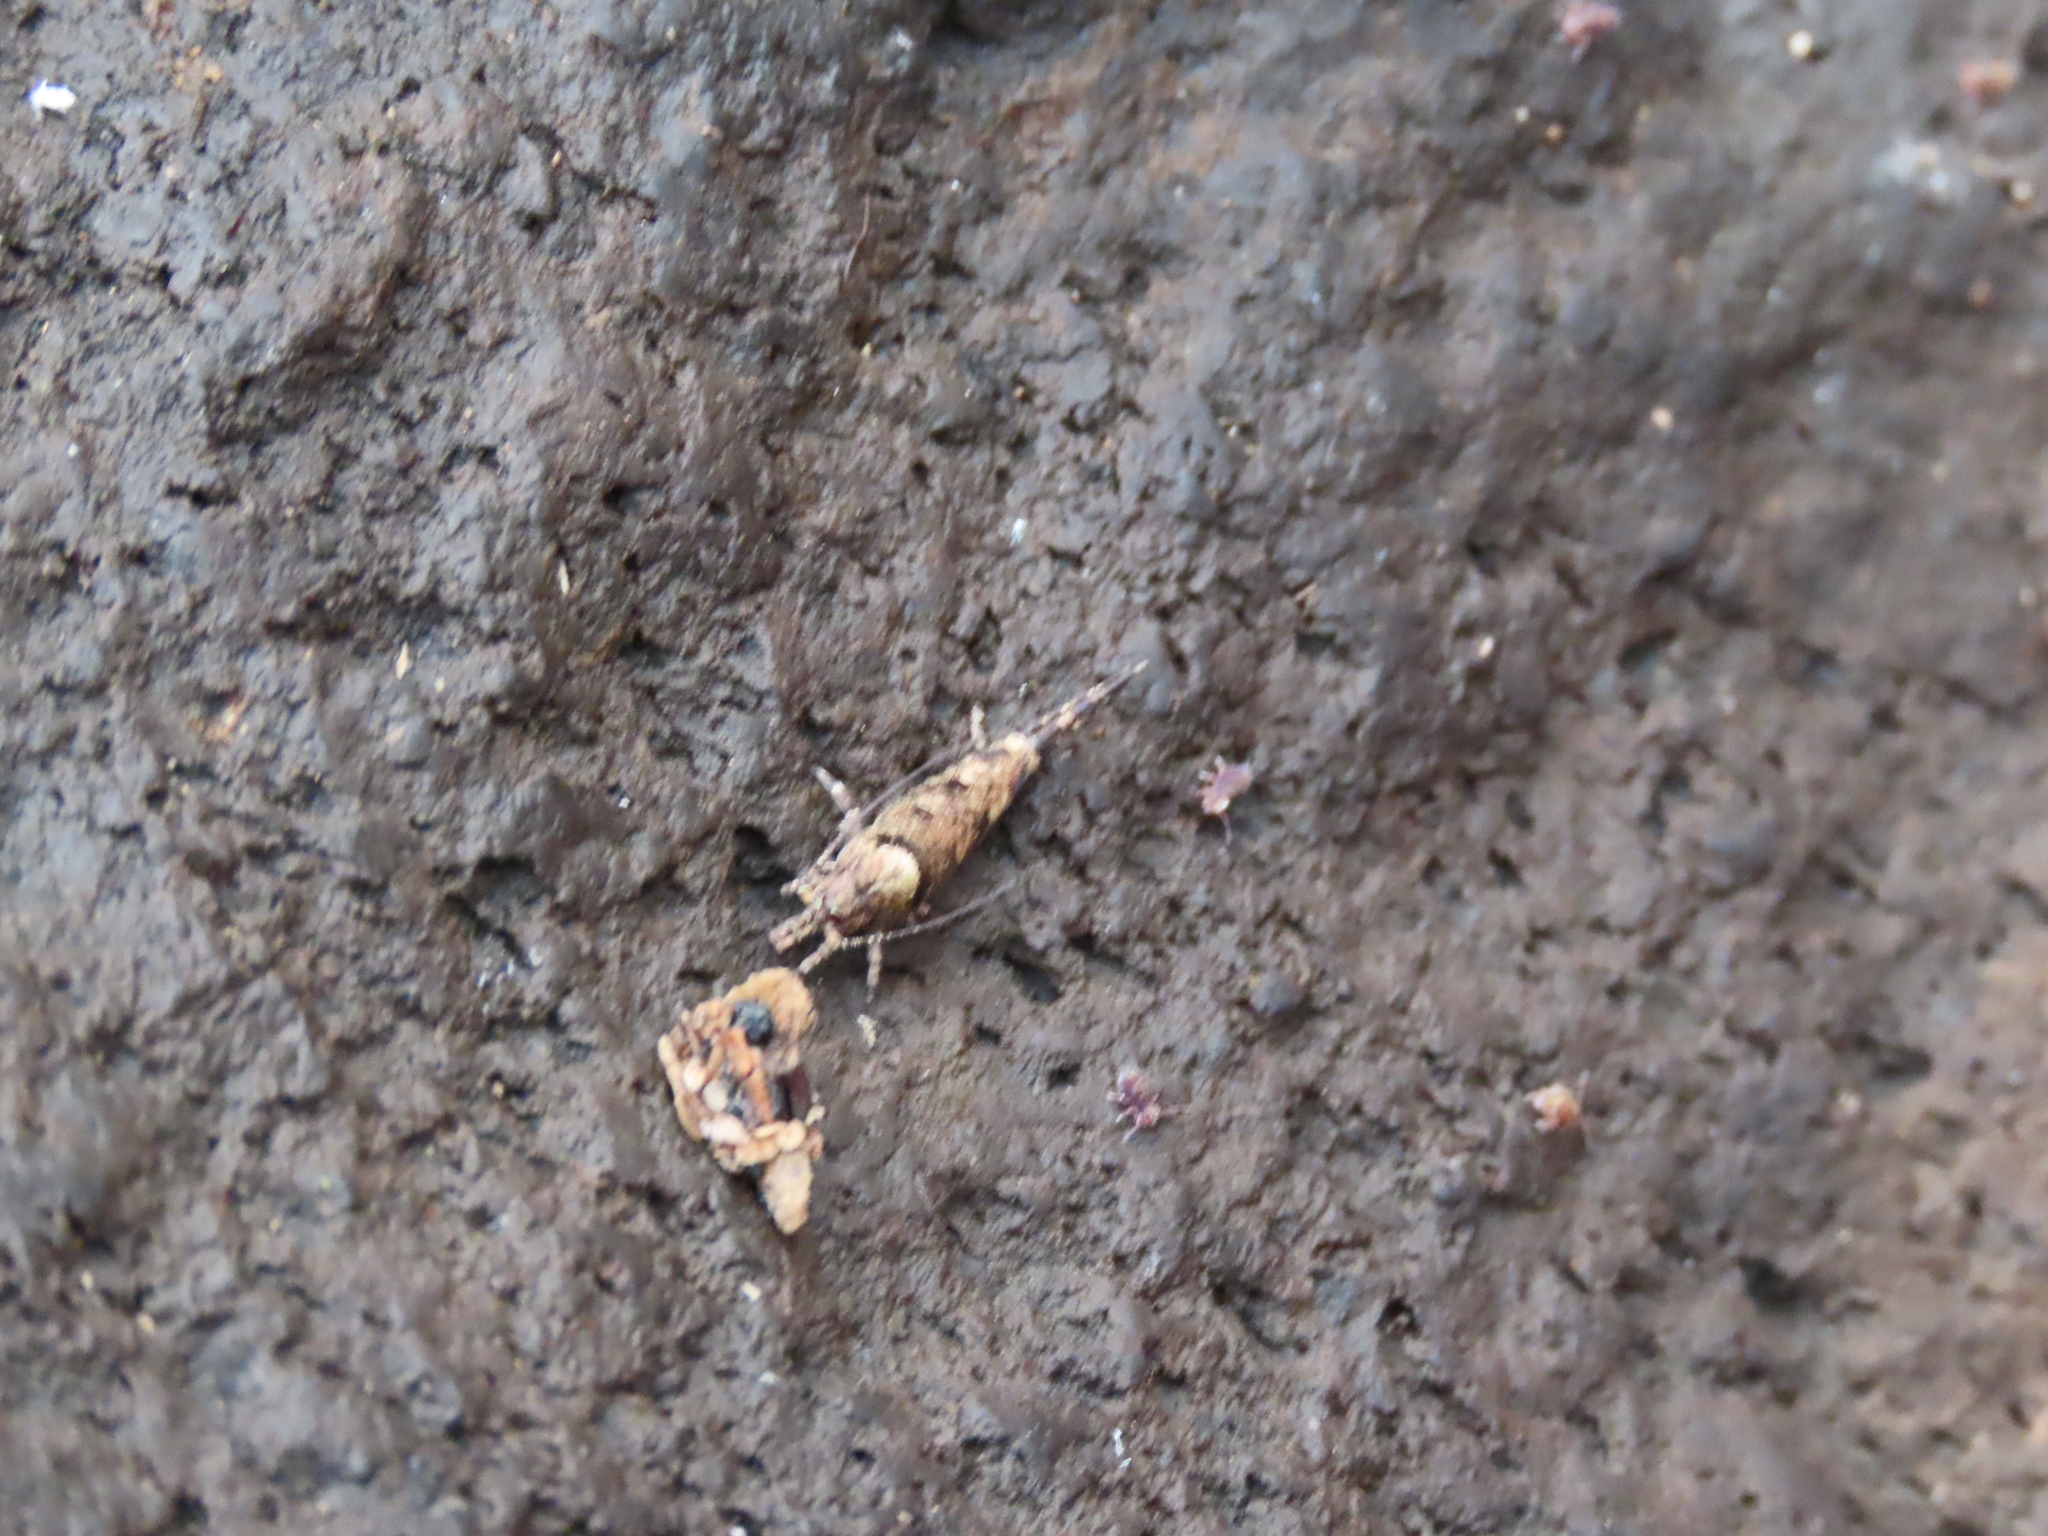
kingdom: Animalia
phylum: Arthropoda
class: Insecta
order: Archaeognatha
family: Machilidae
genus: Trigoniophthalmus
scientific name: Trigoniophthalmus alternatus
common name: Jumping bristletail
